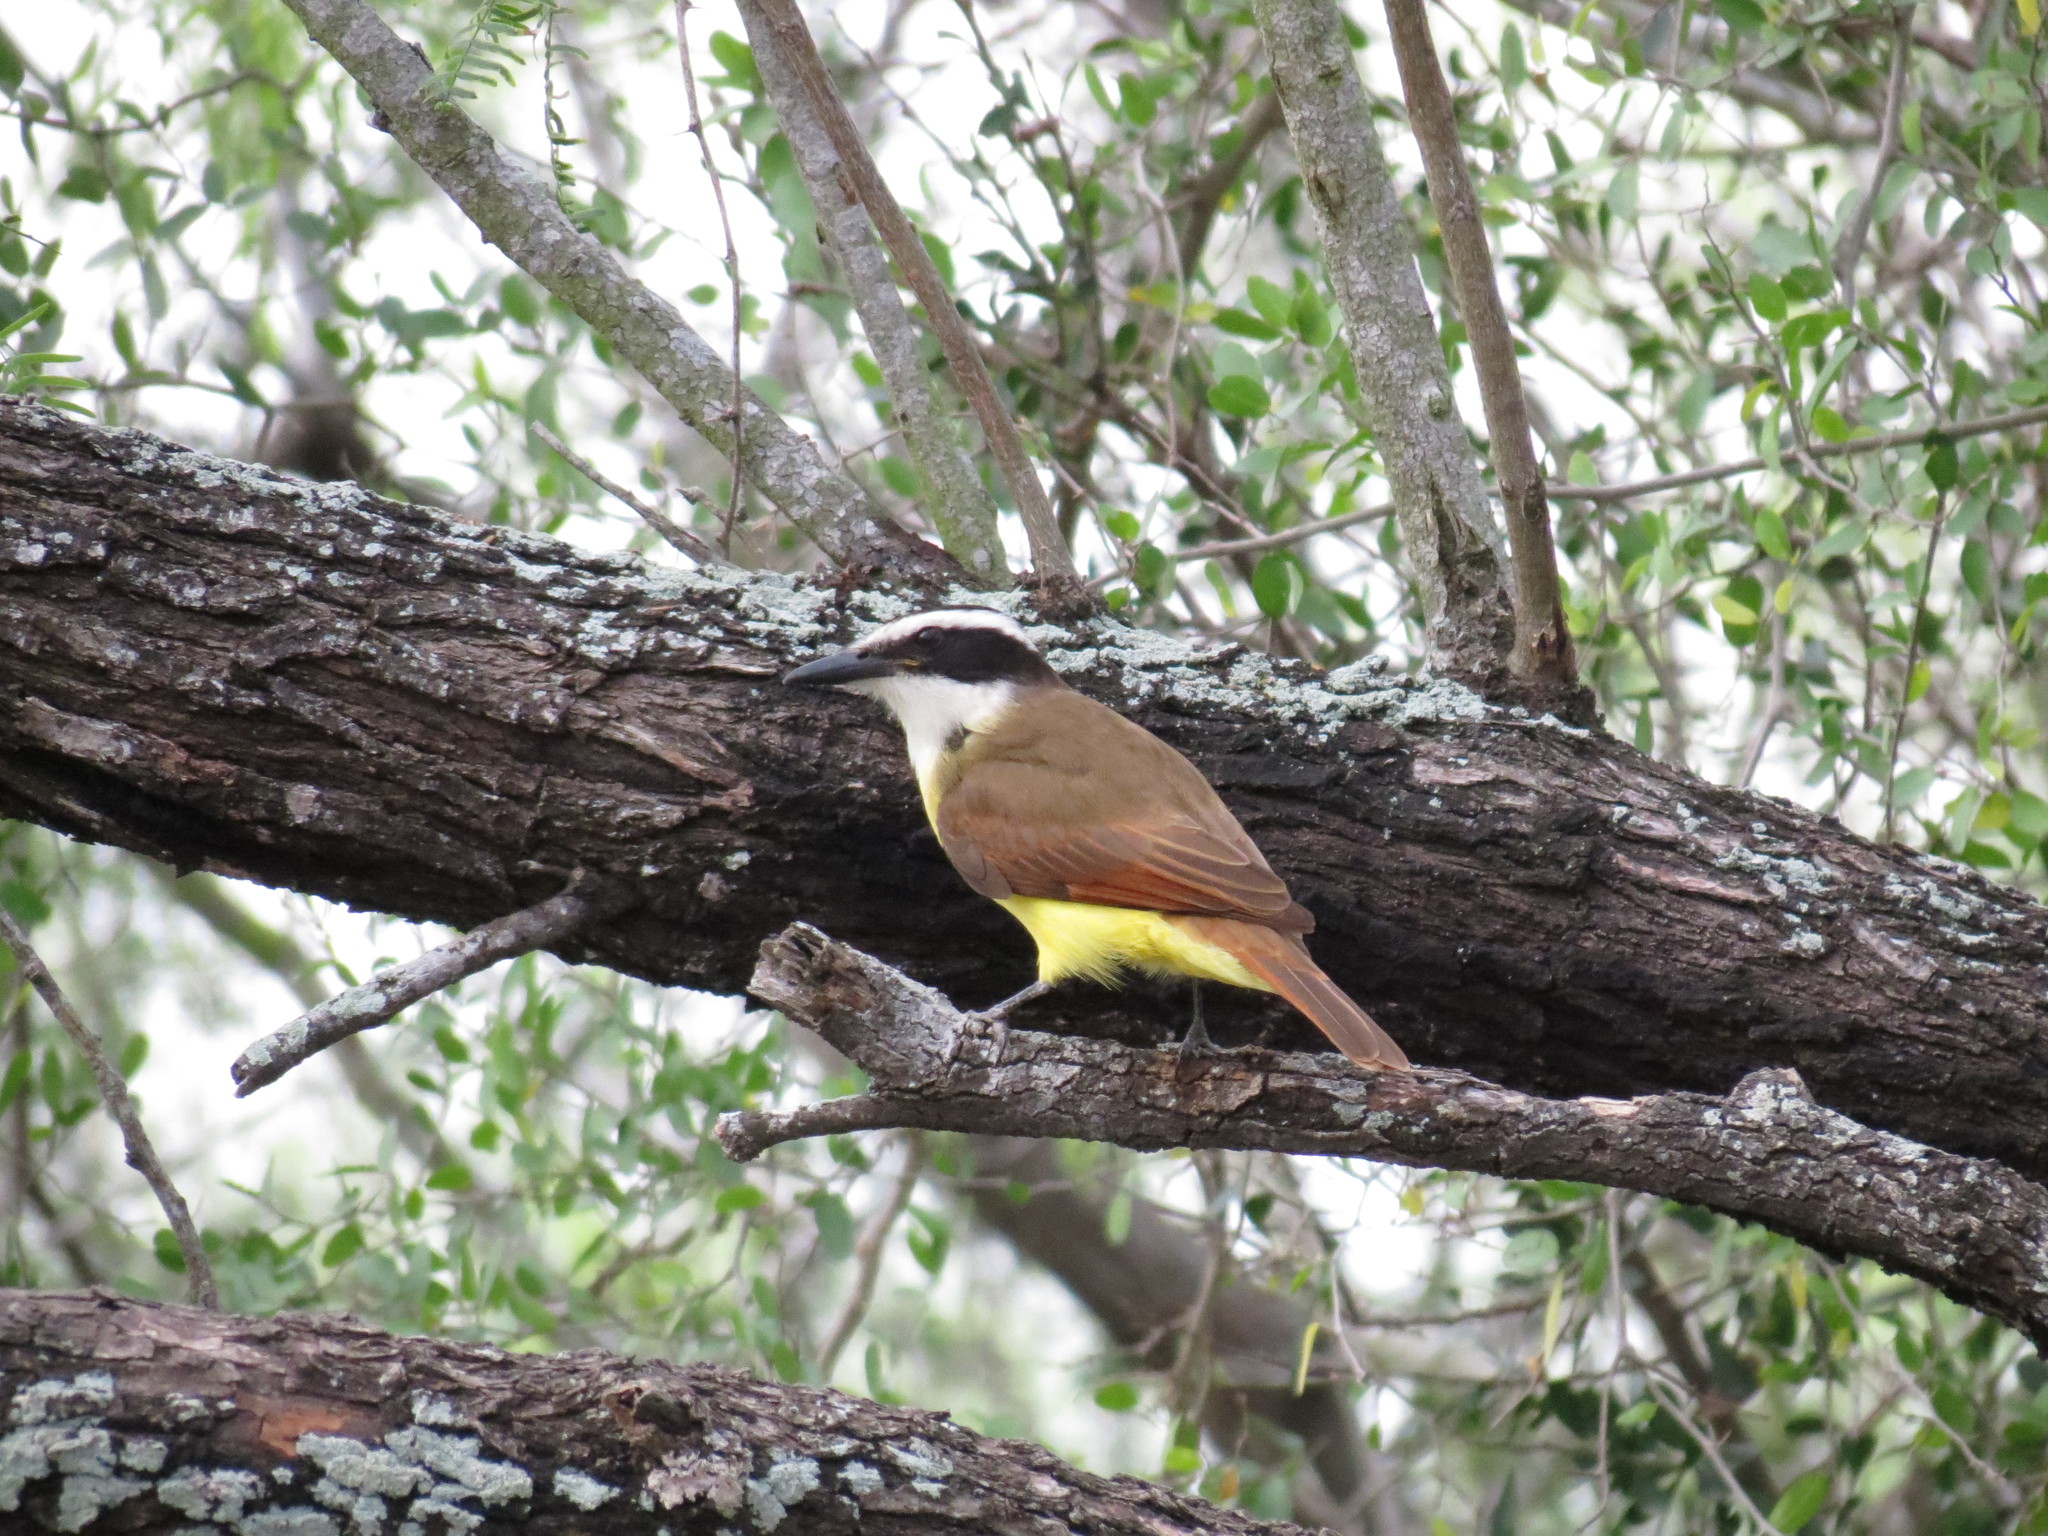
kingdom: Animalia
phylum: Chordata
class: Aves
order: Passeriformes
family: Tyrannidae
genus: Pitangus
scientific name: Pitangus sulphuratus
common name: Great kiskadee
